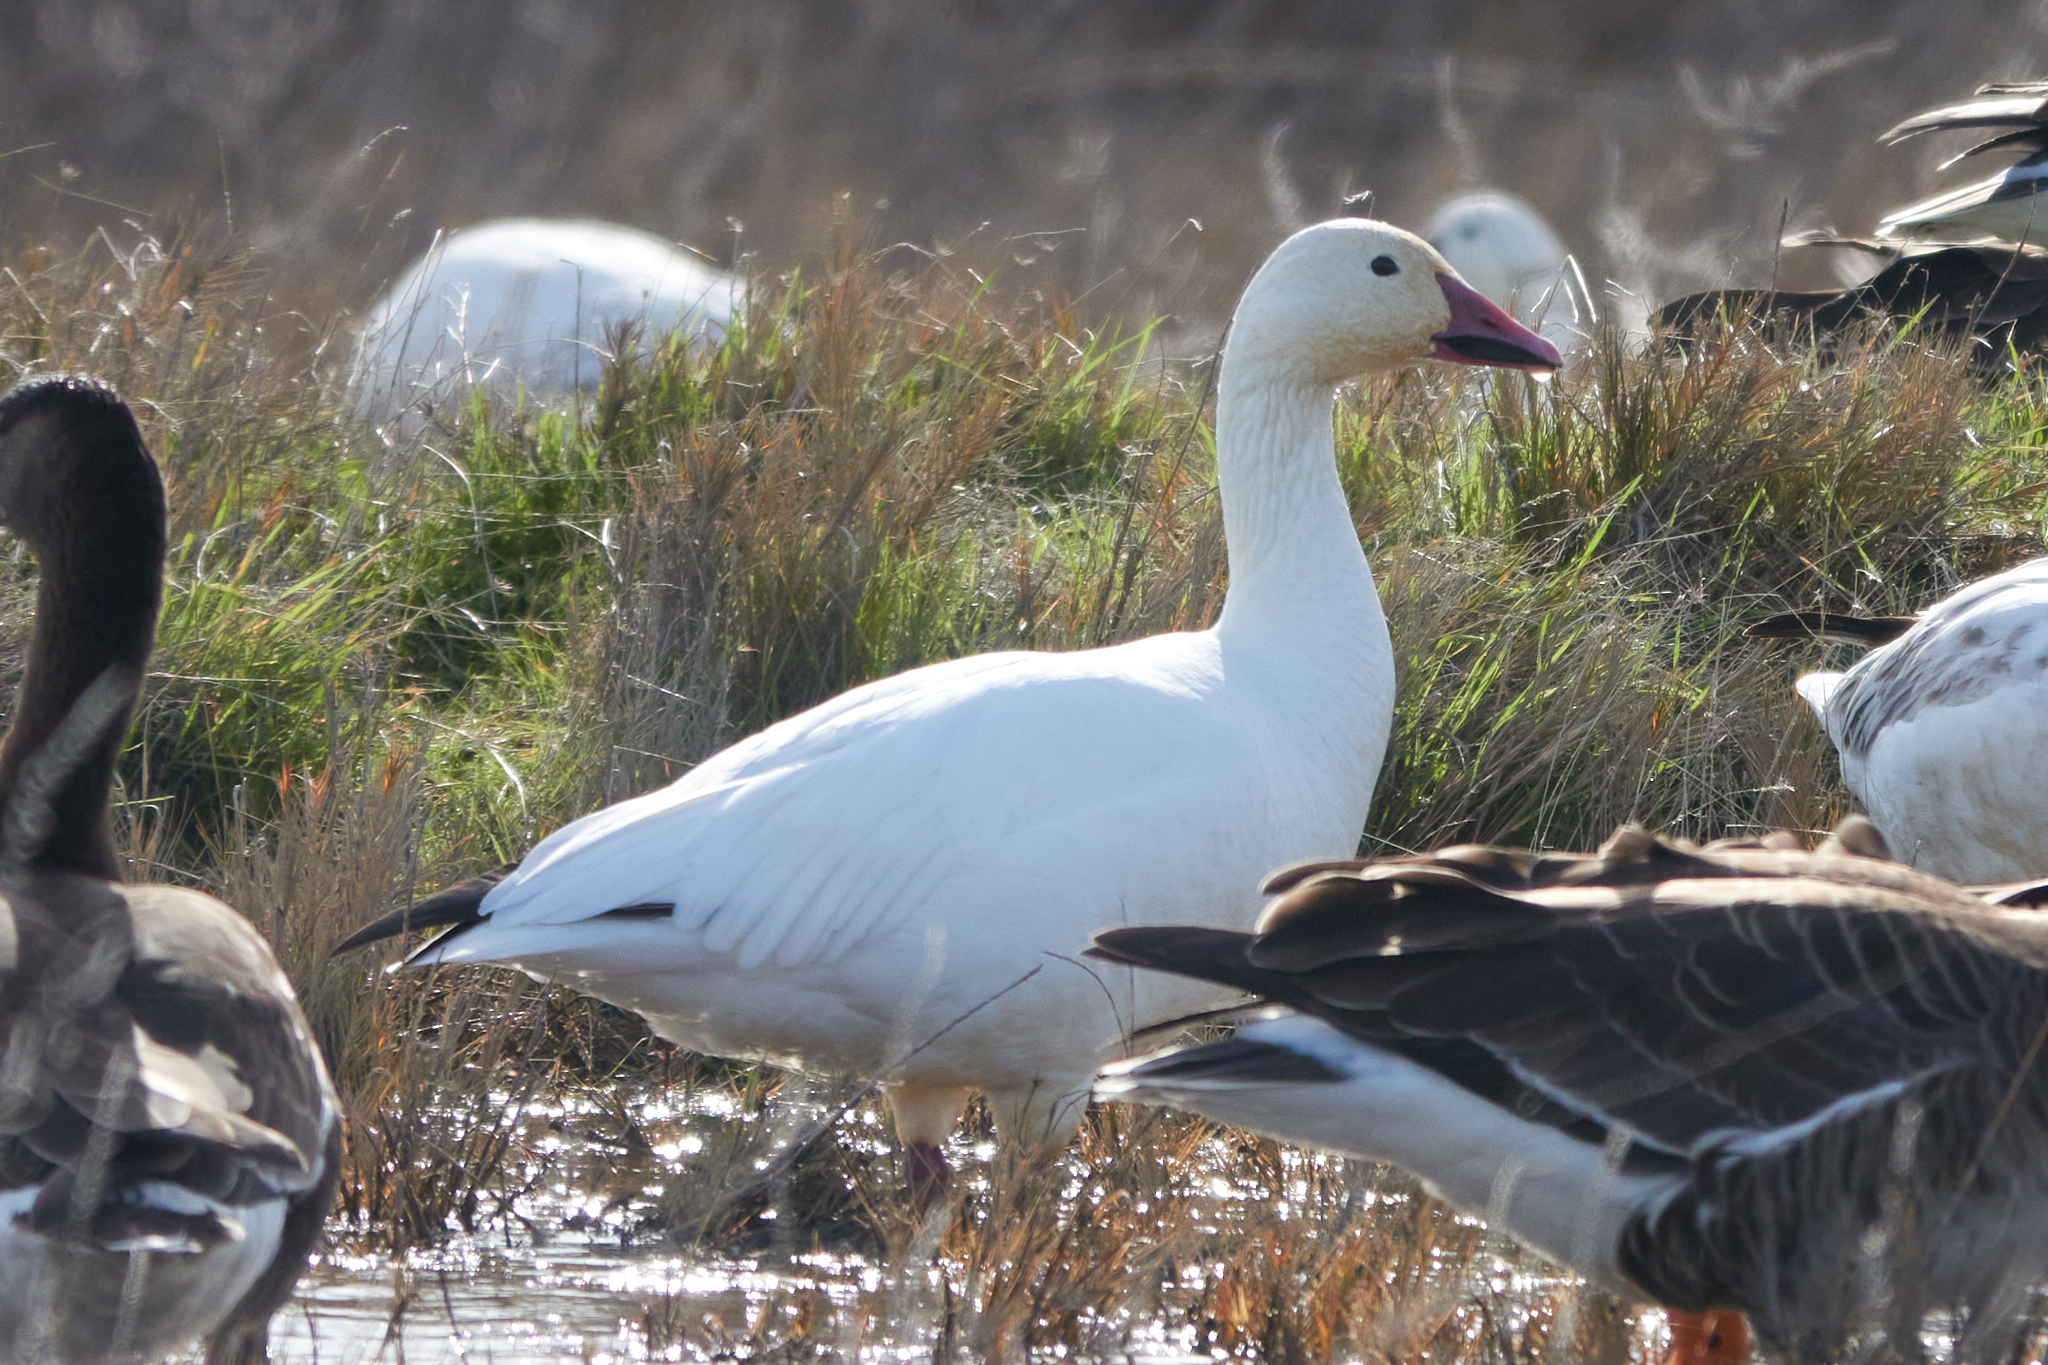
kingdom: Animalia
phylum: Chordata
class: Aves
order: Anseriformes
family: Anatidae
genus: Anser
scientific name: Anser caerulescens
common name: Snow goose
